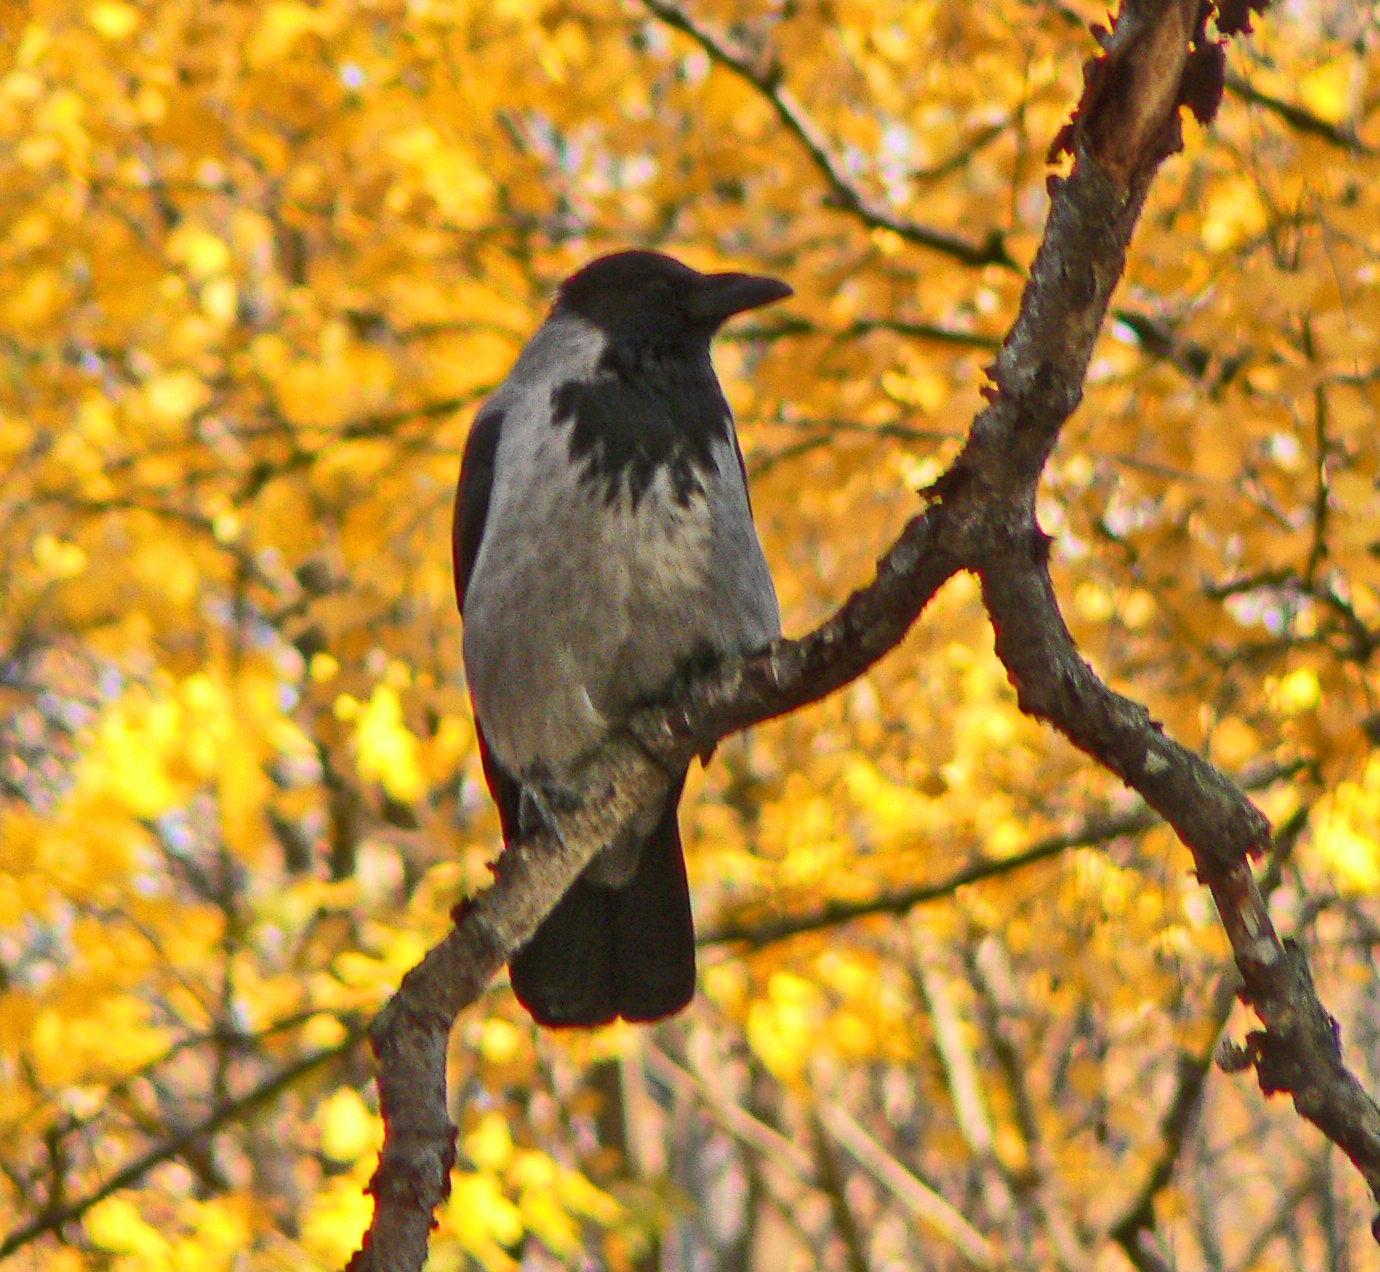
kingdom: Animalia
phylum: Chordata
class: Aves
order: Passeriformes
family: Corvidae
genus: Corvus
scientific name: Corvus cornix
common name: Hooded crow
